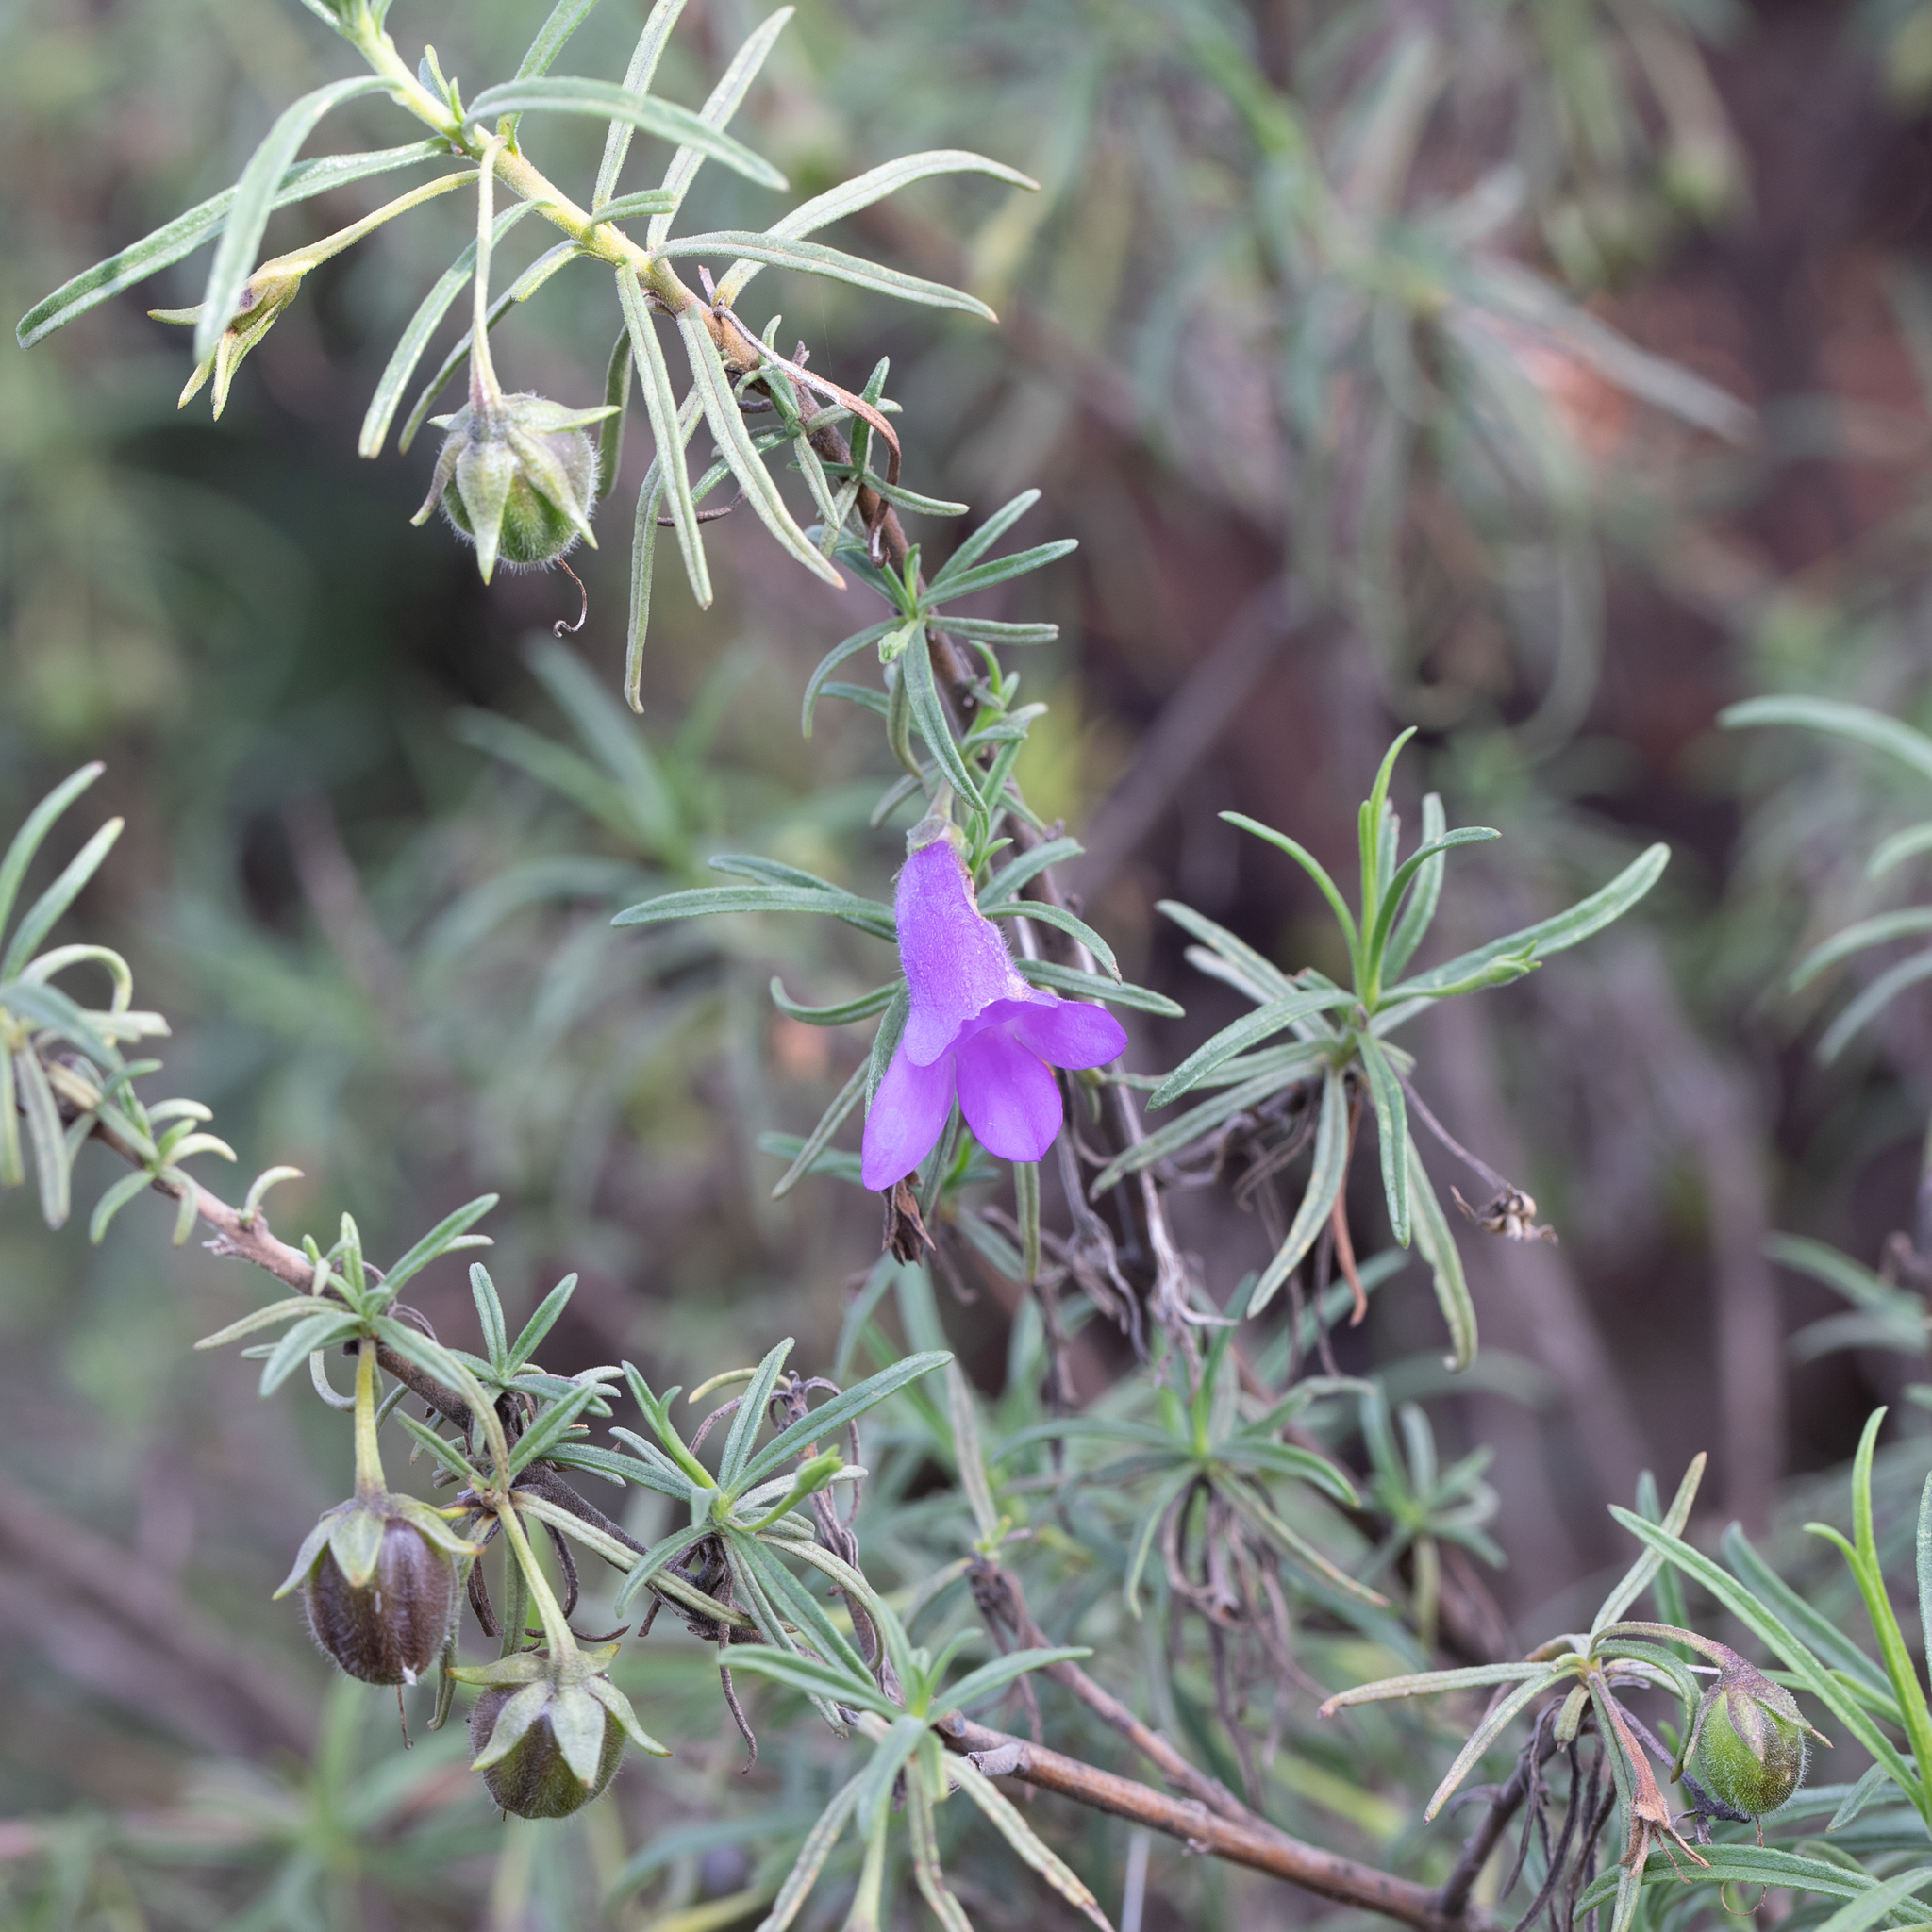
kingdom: Plantae
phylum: Tracheophyta
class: Magnoliopsida
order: Lamiales
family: Scrophulariaceae
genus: Eremophila
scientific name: Eremophila gilesii
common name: Desert fuchsia
